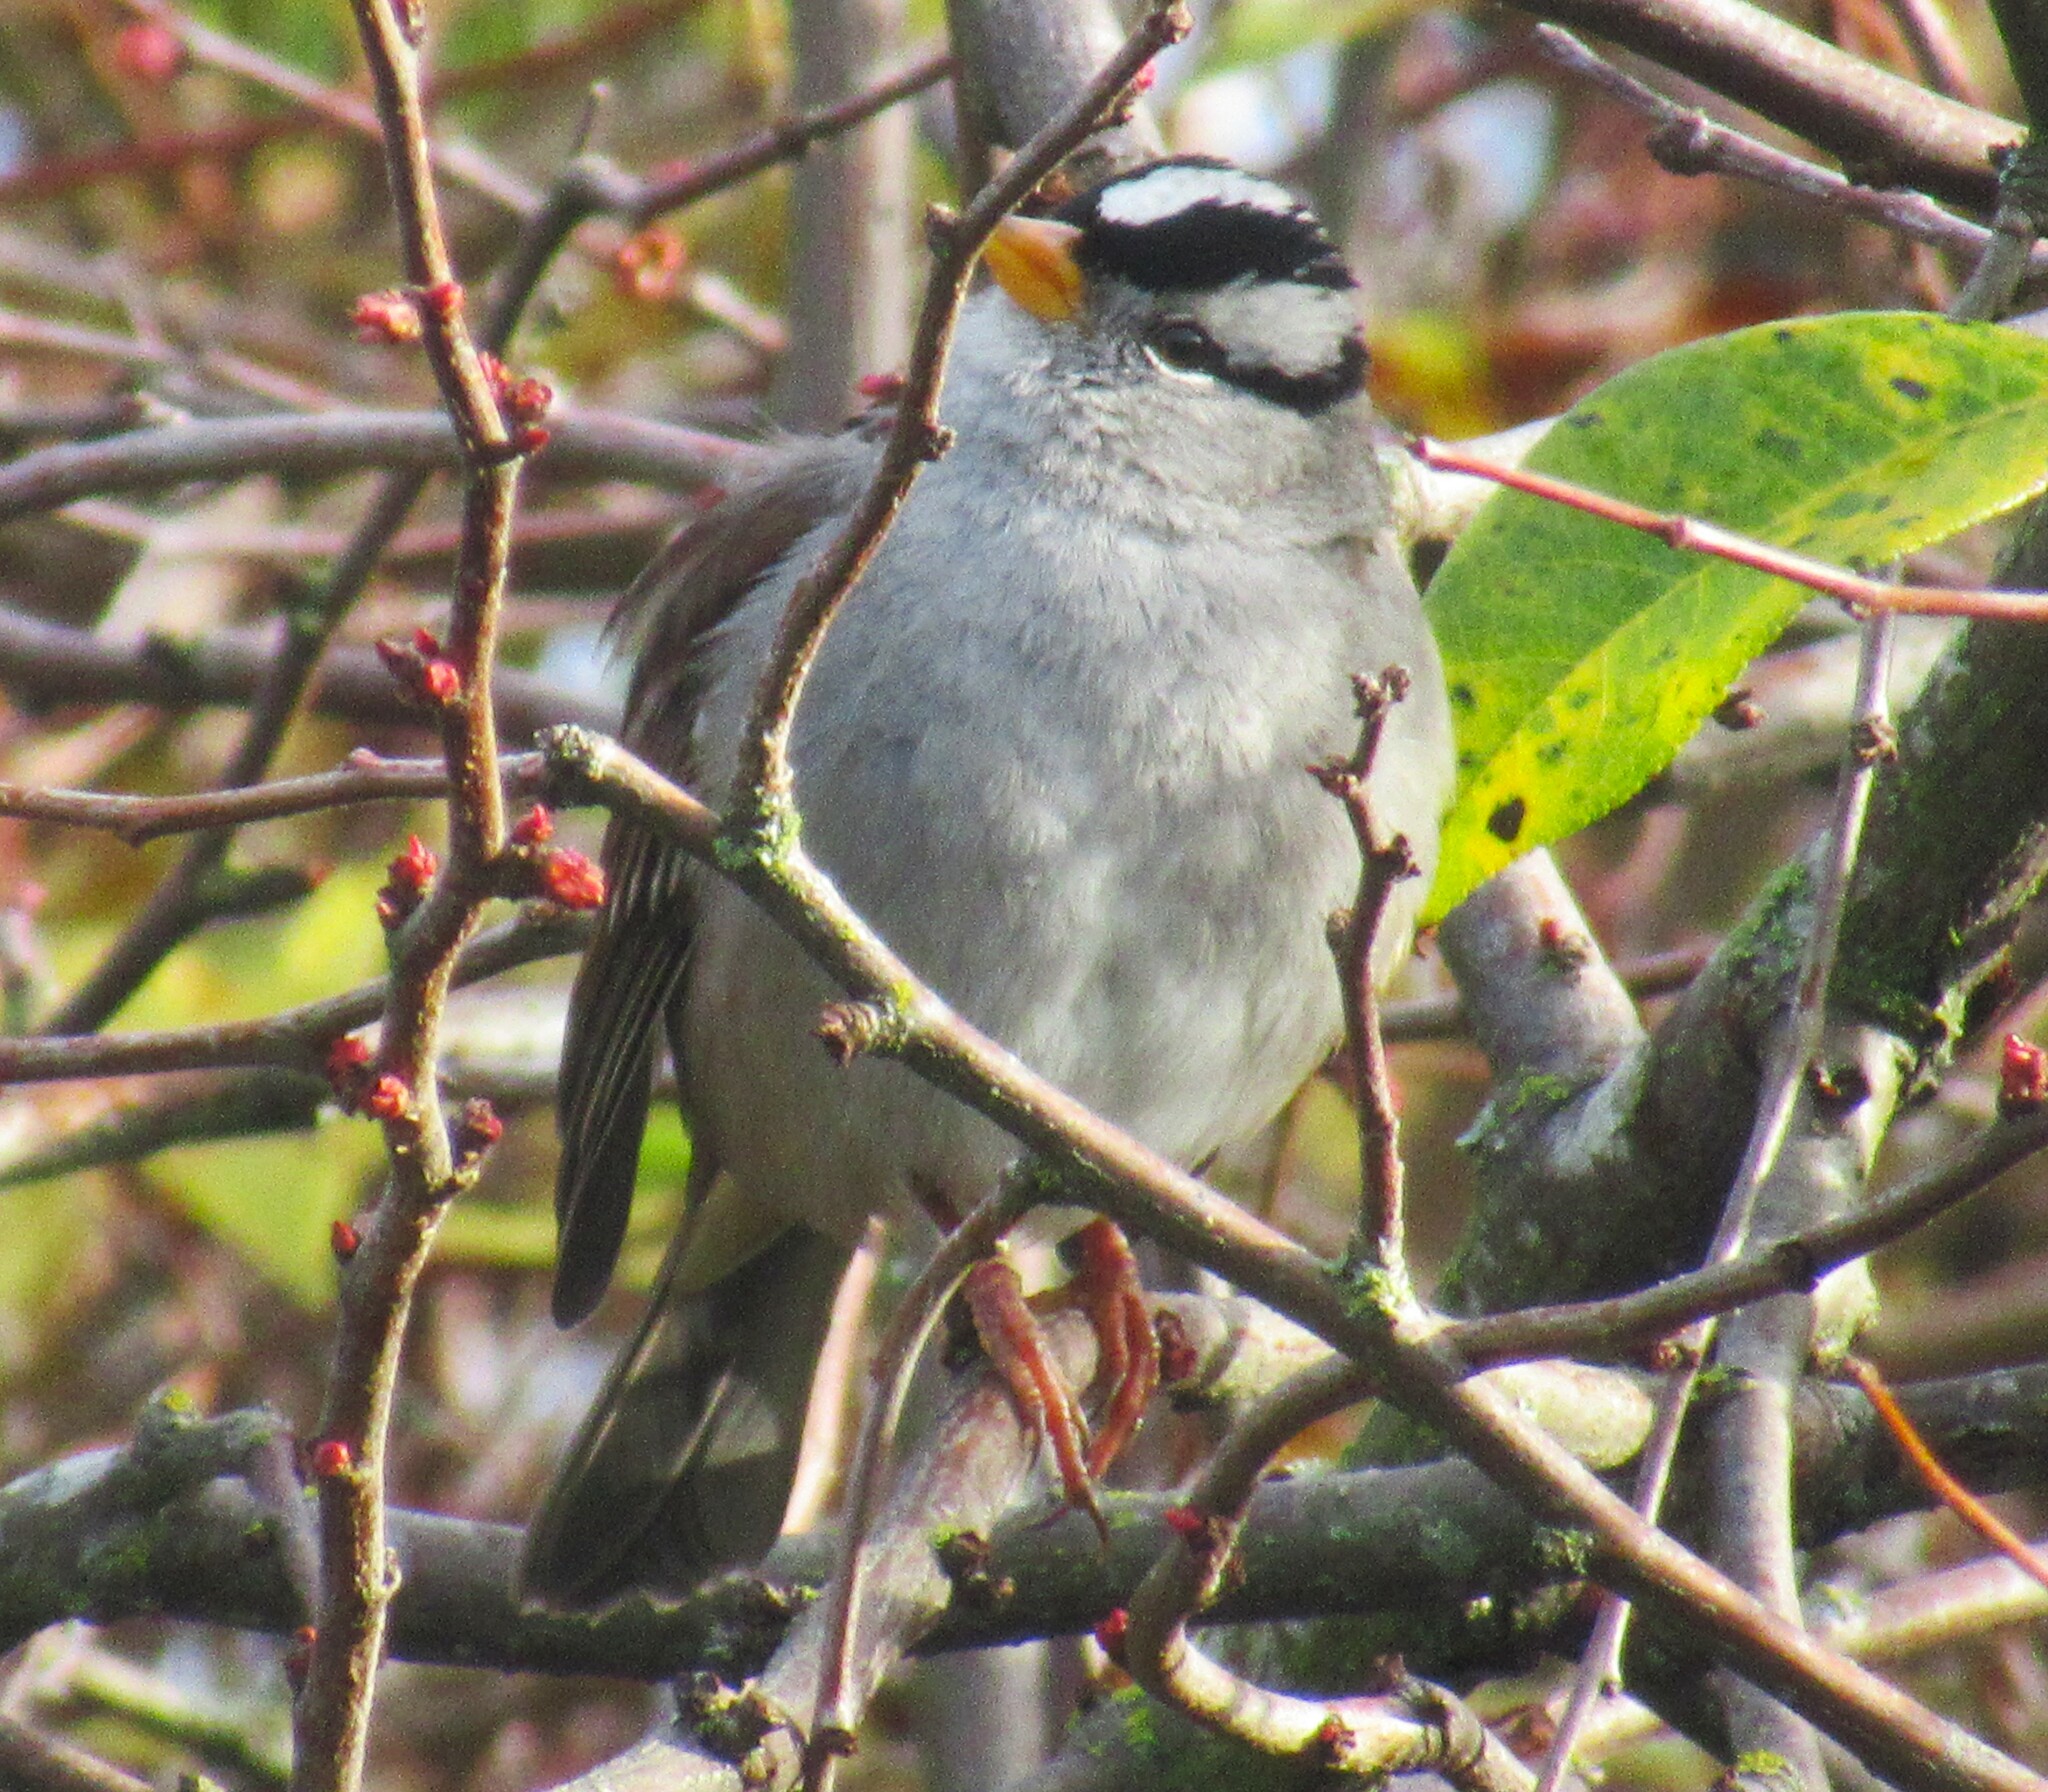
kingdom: Animalia
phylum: Chordata
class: Aves
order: Passeriformes
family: Passerellidae
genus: Zonotrichia
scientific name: Zonotrichia leucophrys
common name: White-crowned sparrow
